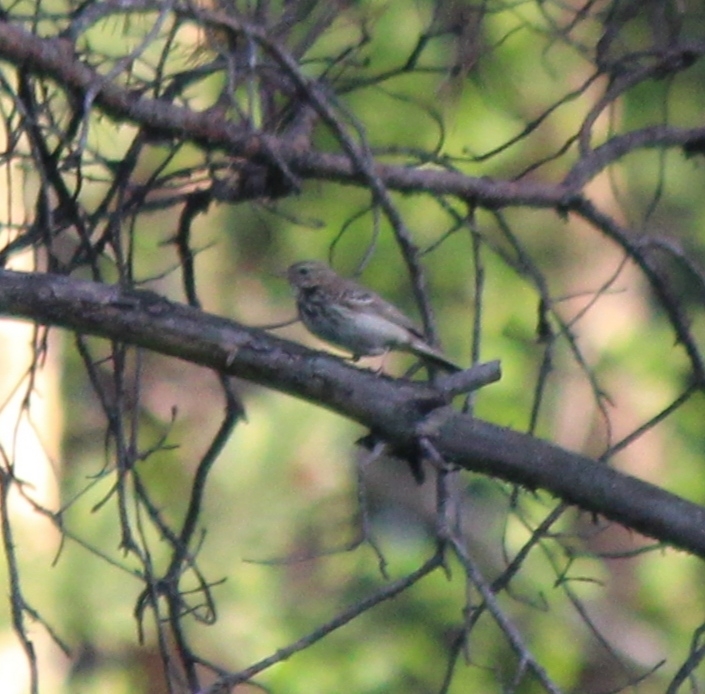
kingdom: Animalia
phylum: Chordata
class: Aves
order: Passeriformes
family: Motacillidae
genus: Anthus
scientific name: Anthus trivialis
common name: Tree pipit
